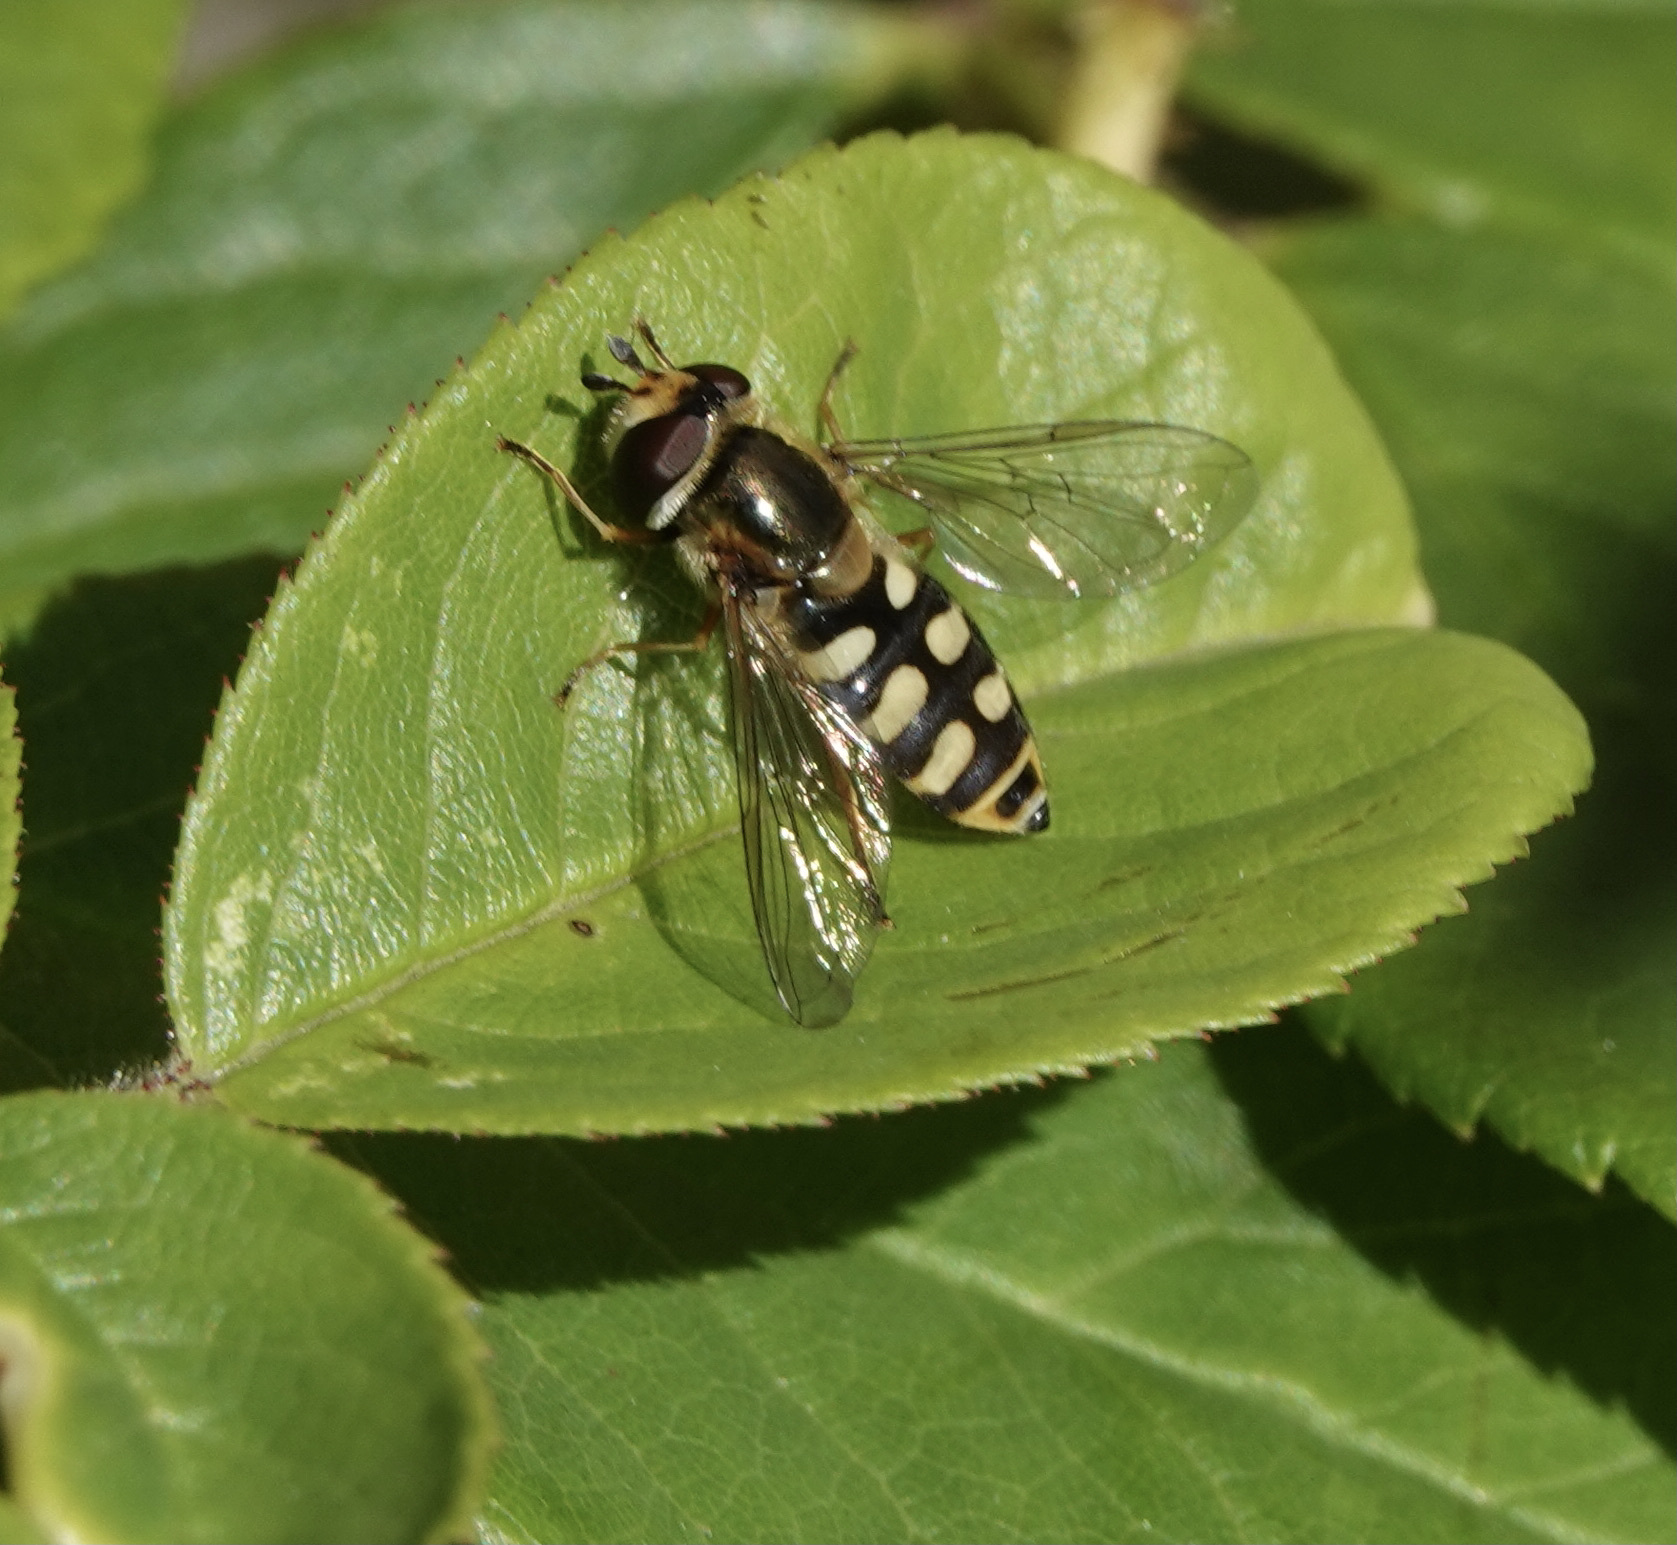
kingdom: Animalia
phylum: Arthropoda
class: Insecta
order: Diptera
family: Syrphidae
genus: Eupeodes
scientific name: Eupeodes corollae
